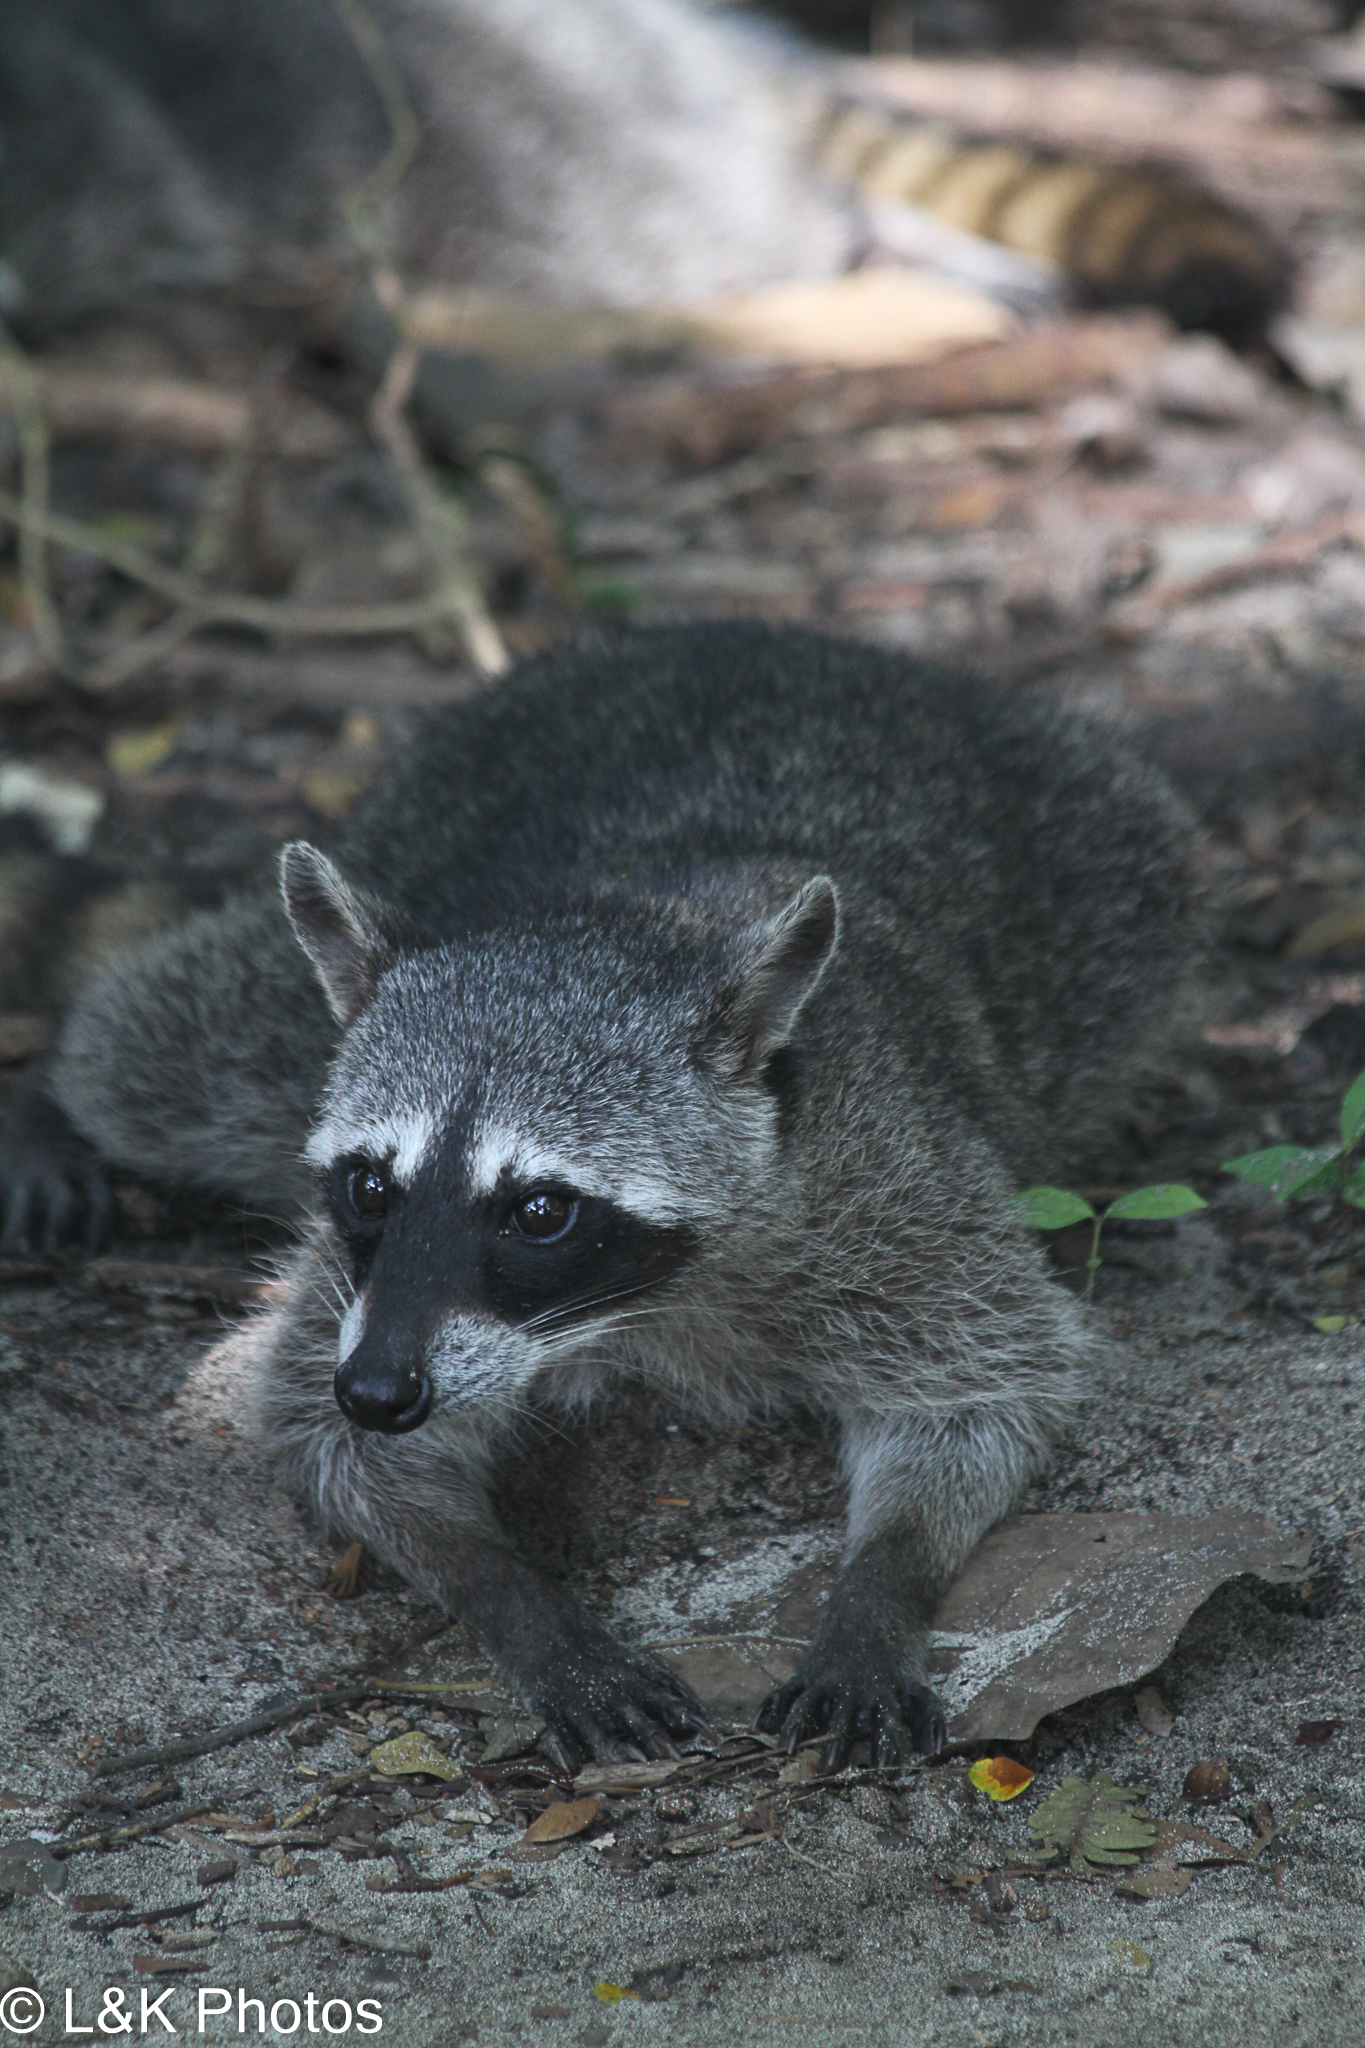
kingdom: Animalia
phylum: Chordata
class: Mammalia
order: Carnivora
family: Procyonidae
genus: Procyon
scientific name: Procyon lotor
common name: Raccoon
